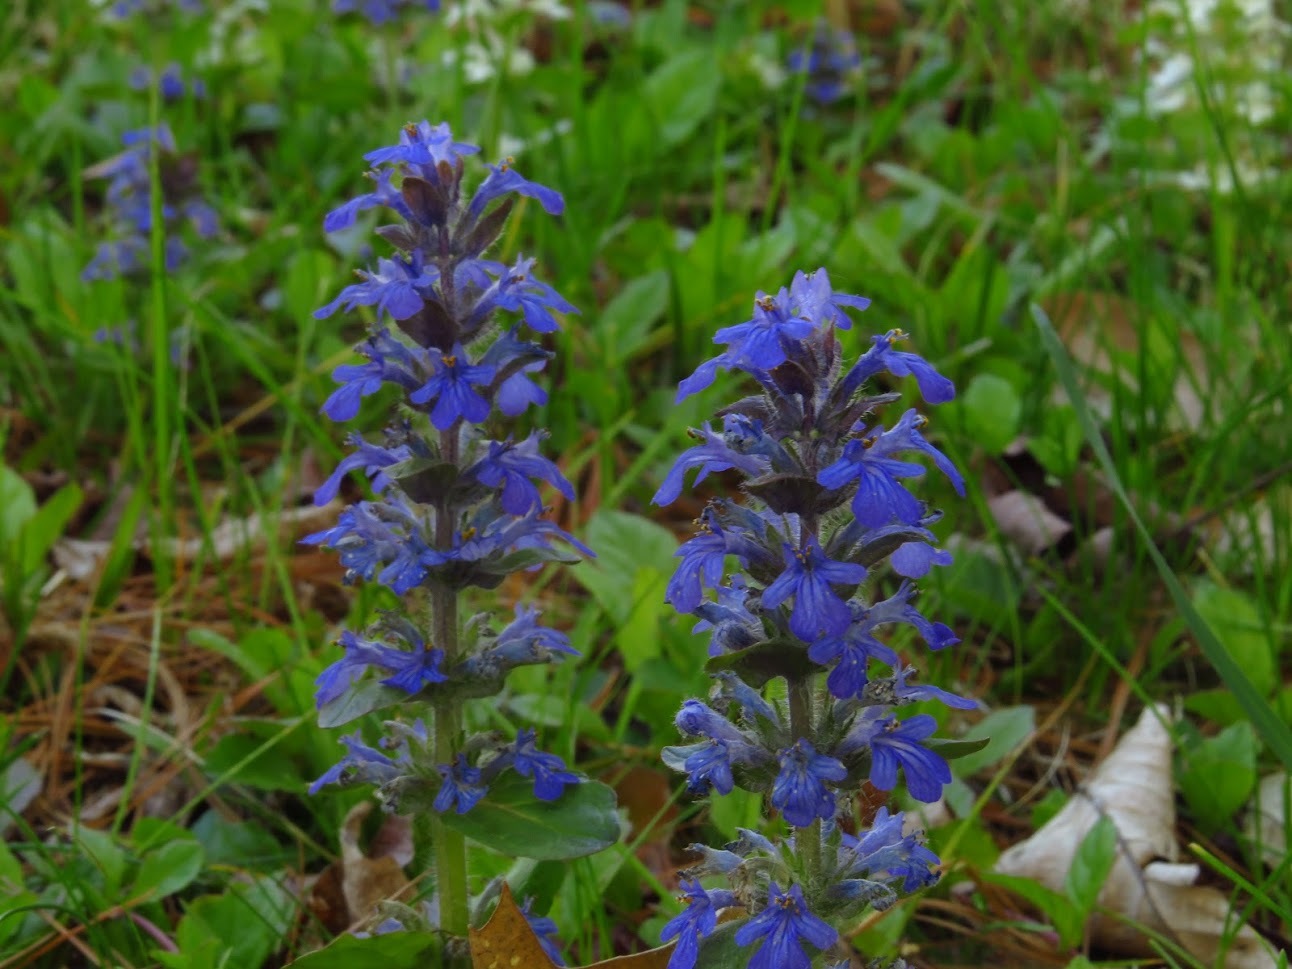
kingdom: Plantae
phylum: Tracheophyta
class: Magnoliopsida
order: Lamiales
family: Lamiaceae
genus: Ajuga
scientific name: Ajuga reptans
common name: Bugle
